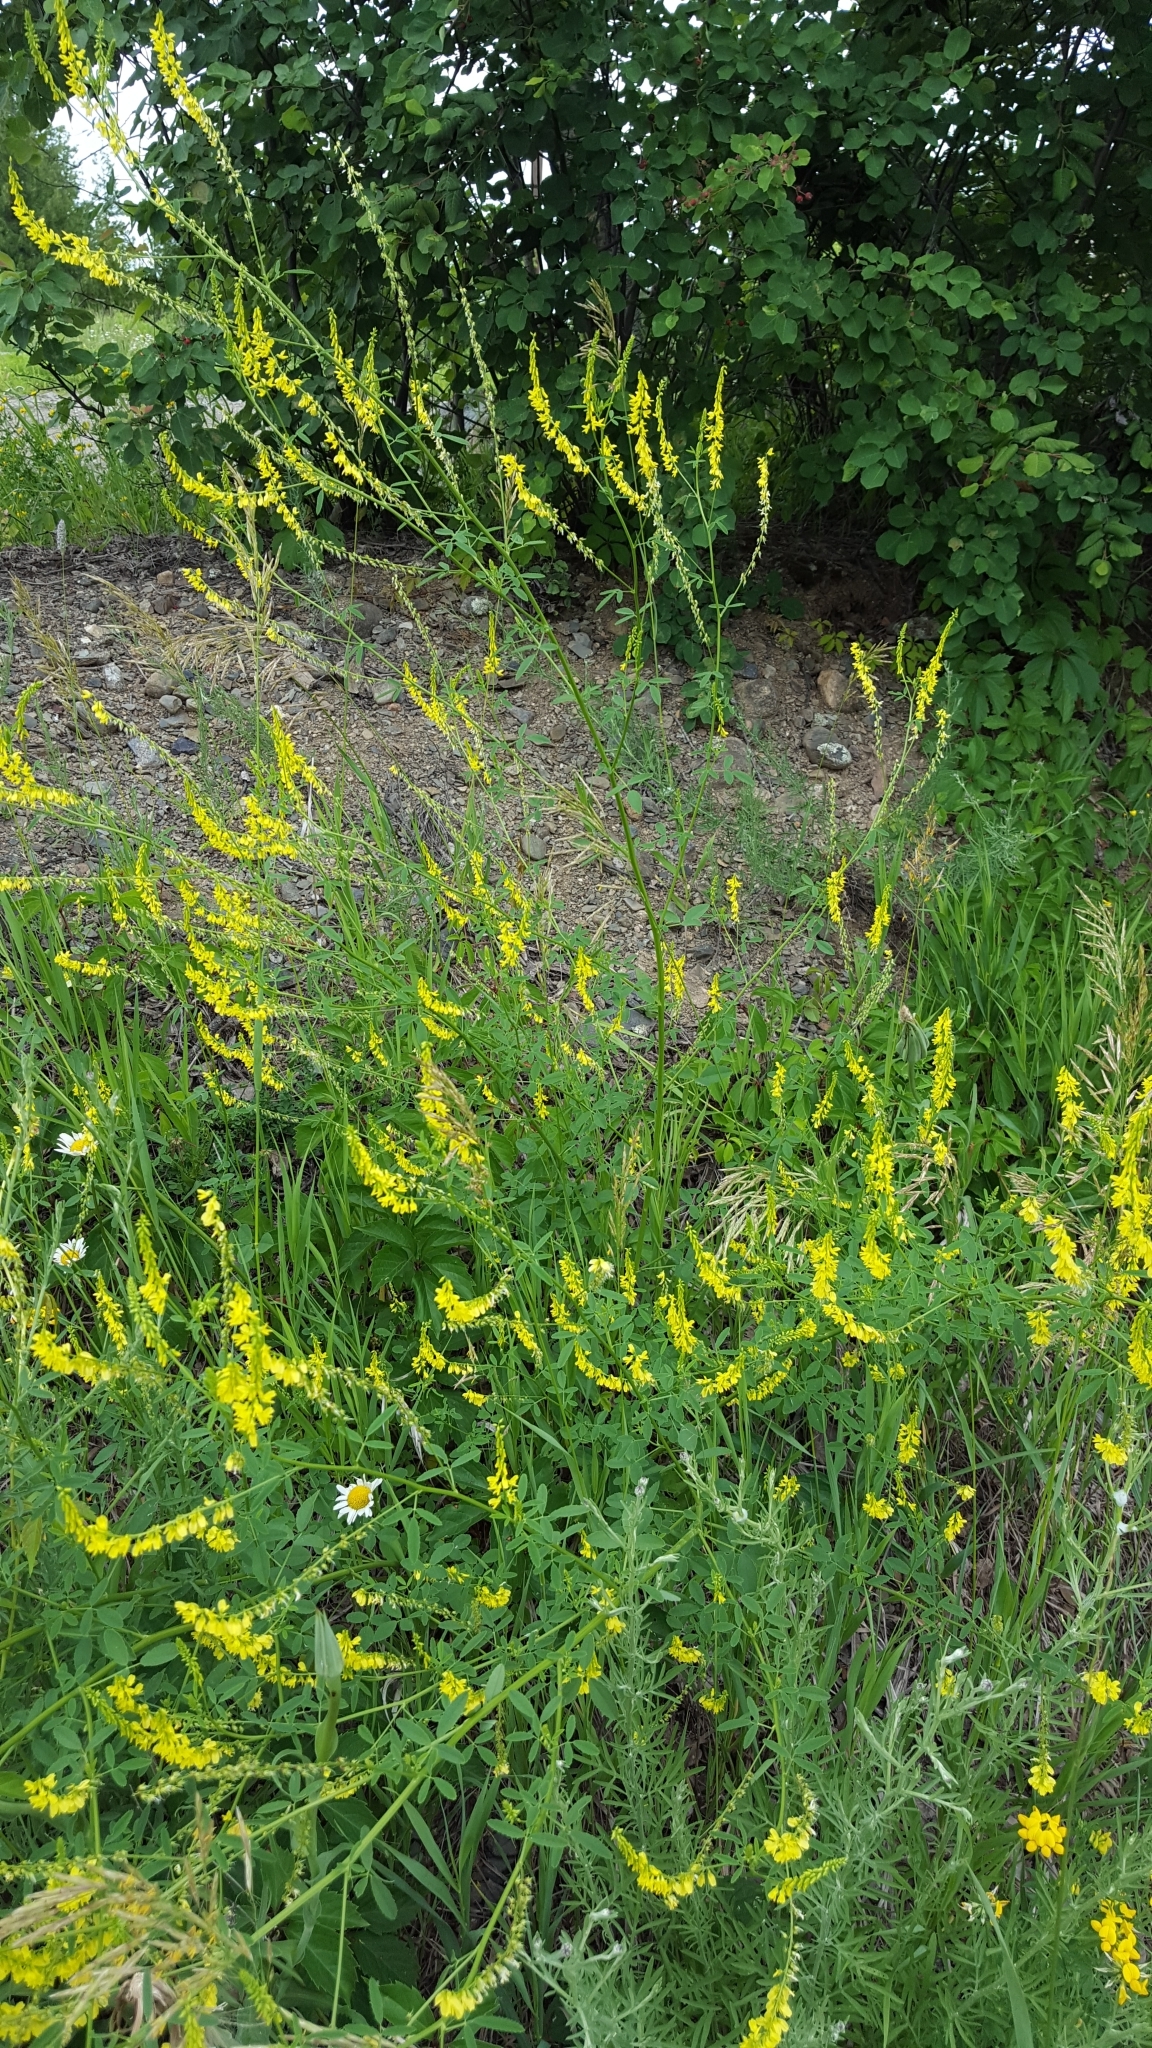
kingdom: Plantae
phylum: Tracheophyta
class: Magnoliopsida
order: Fabales
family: Fabaceae
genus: Melilotus
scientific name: Melilotus officinalis
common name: Sweetclover
